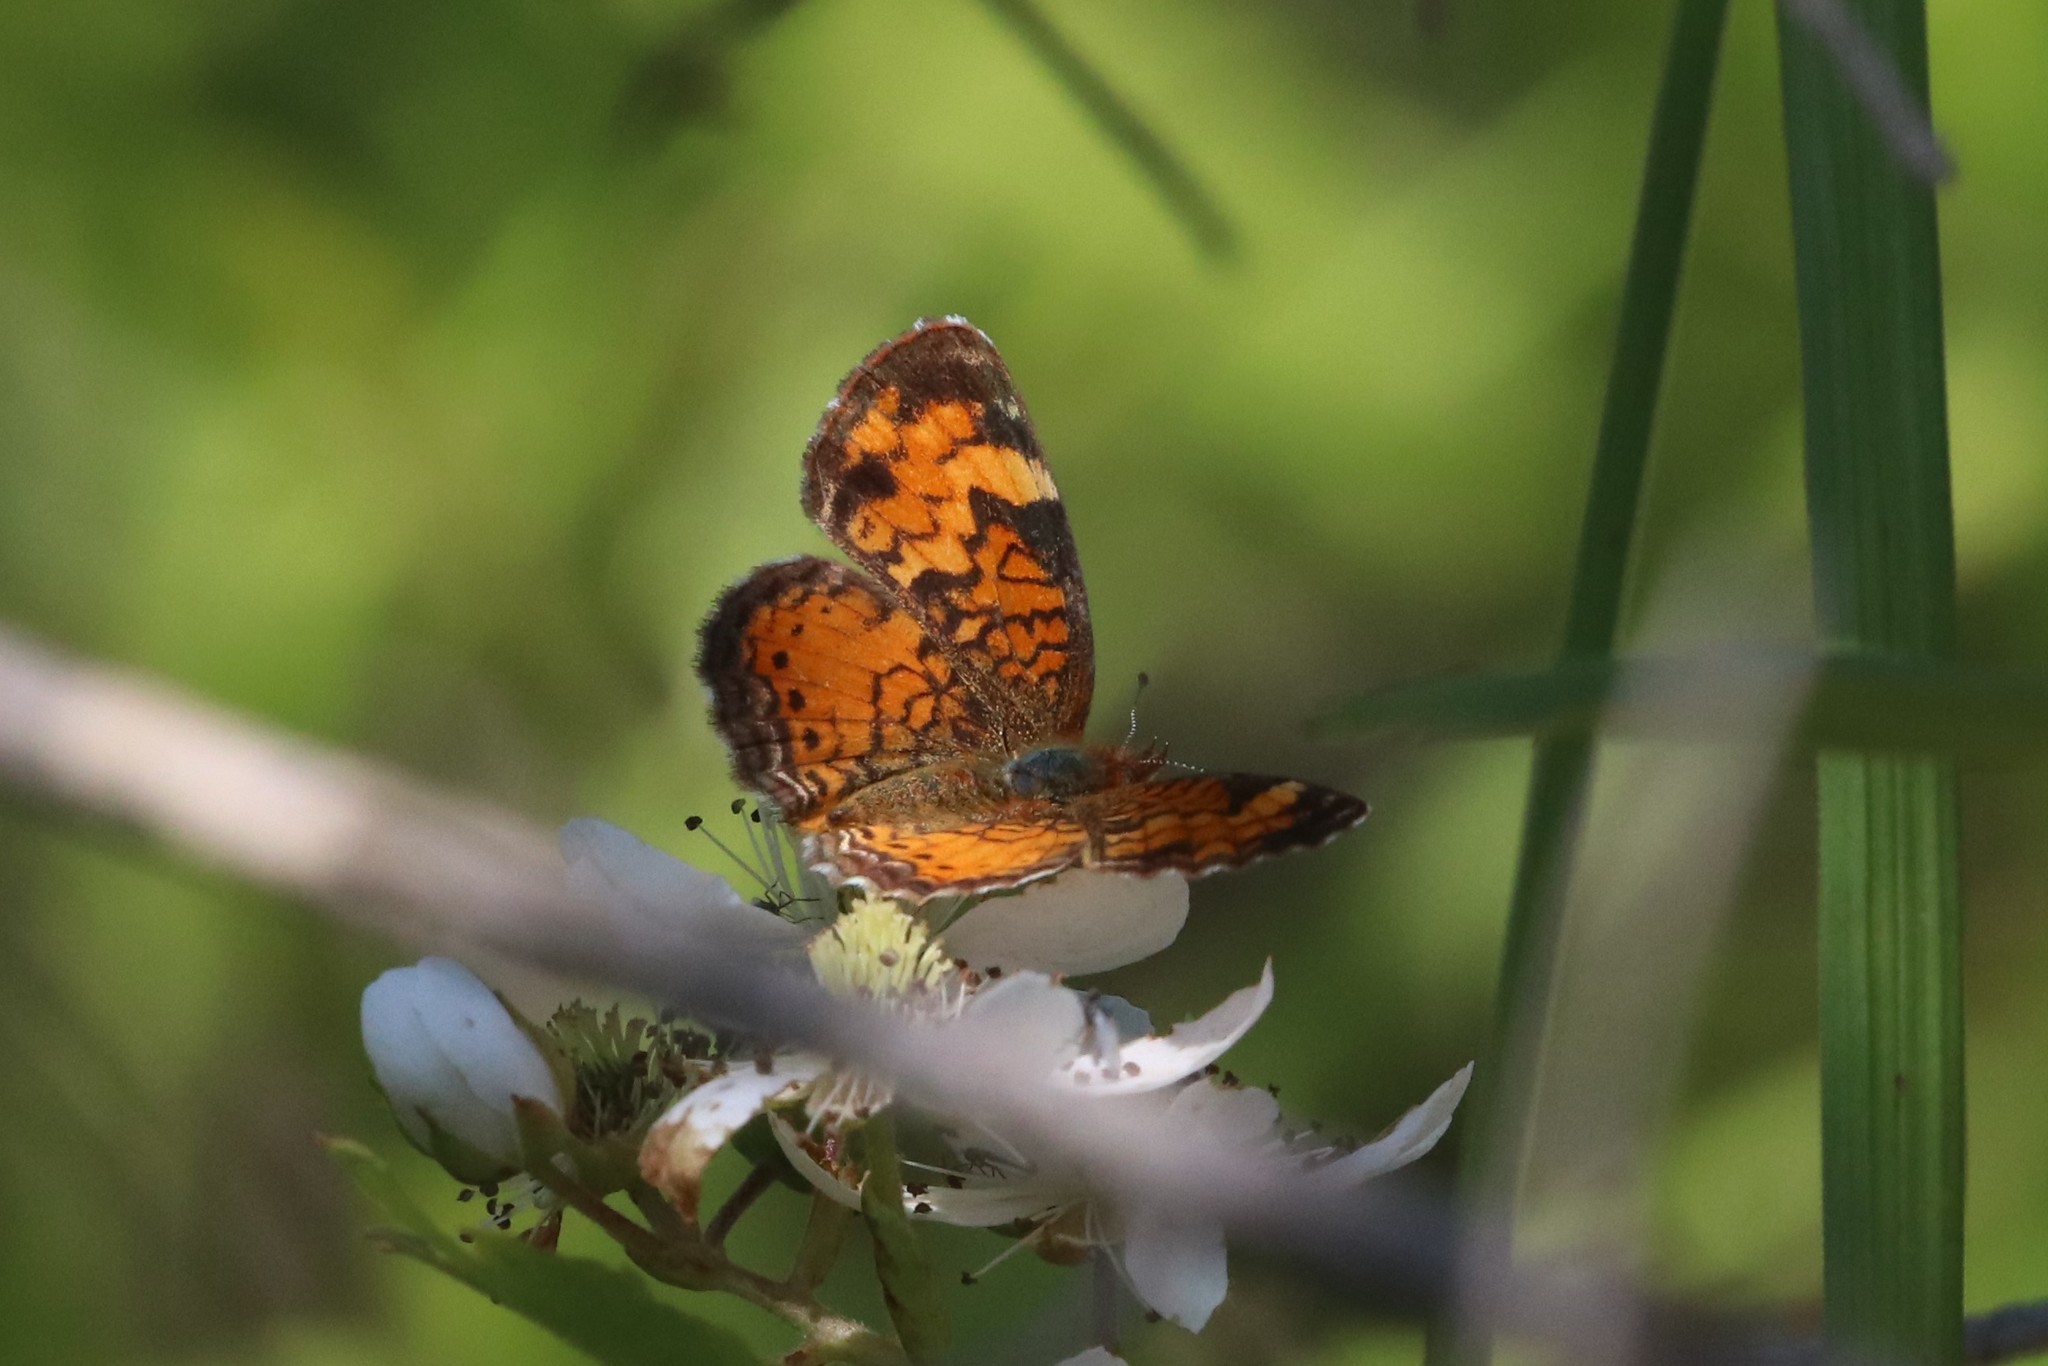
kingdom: Animalia
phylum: Arthropoda
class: Insecta
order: Lepidoptera
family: Nymphalidae
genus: Phyciodes
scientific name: Phyciodes tharos
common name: Pearl crescent
